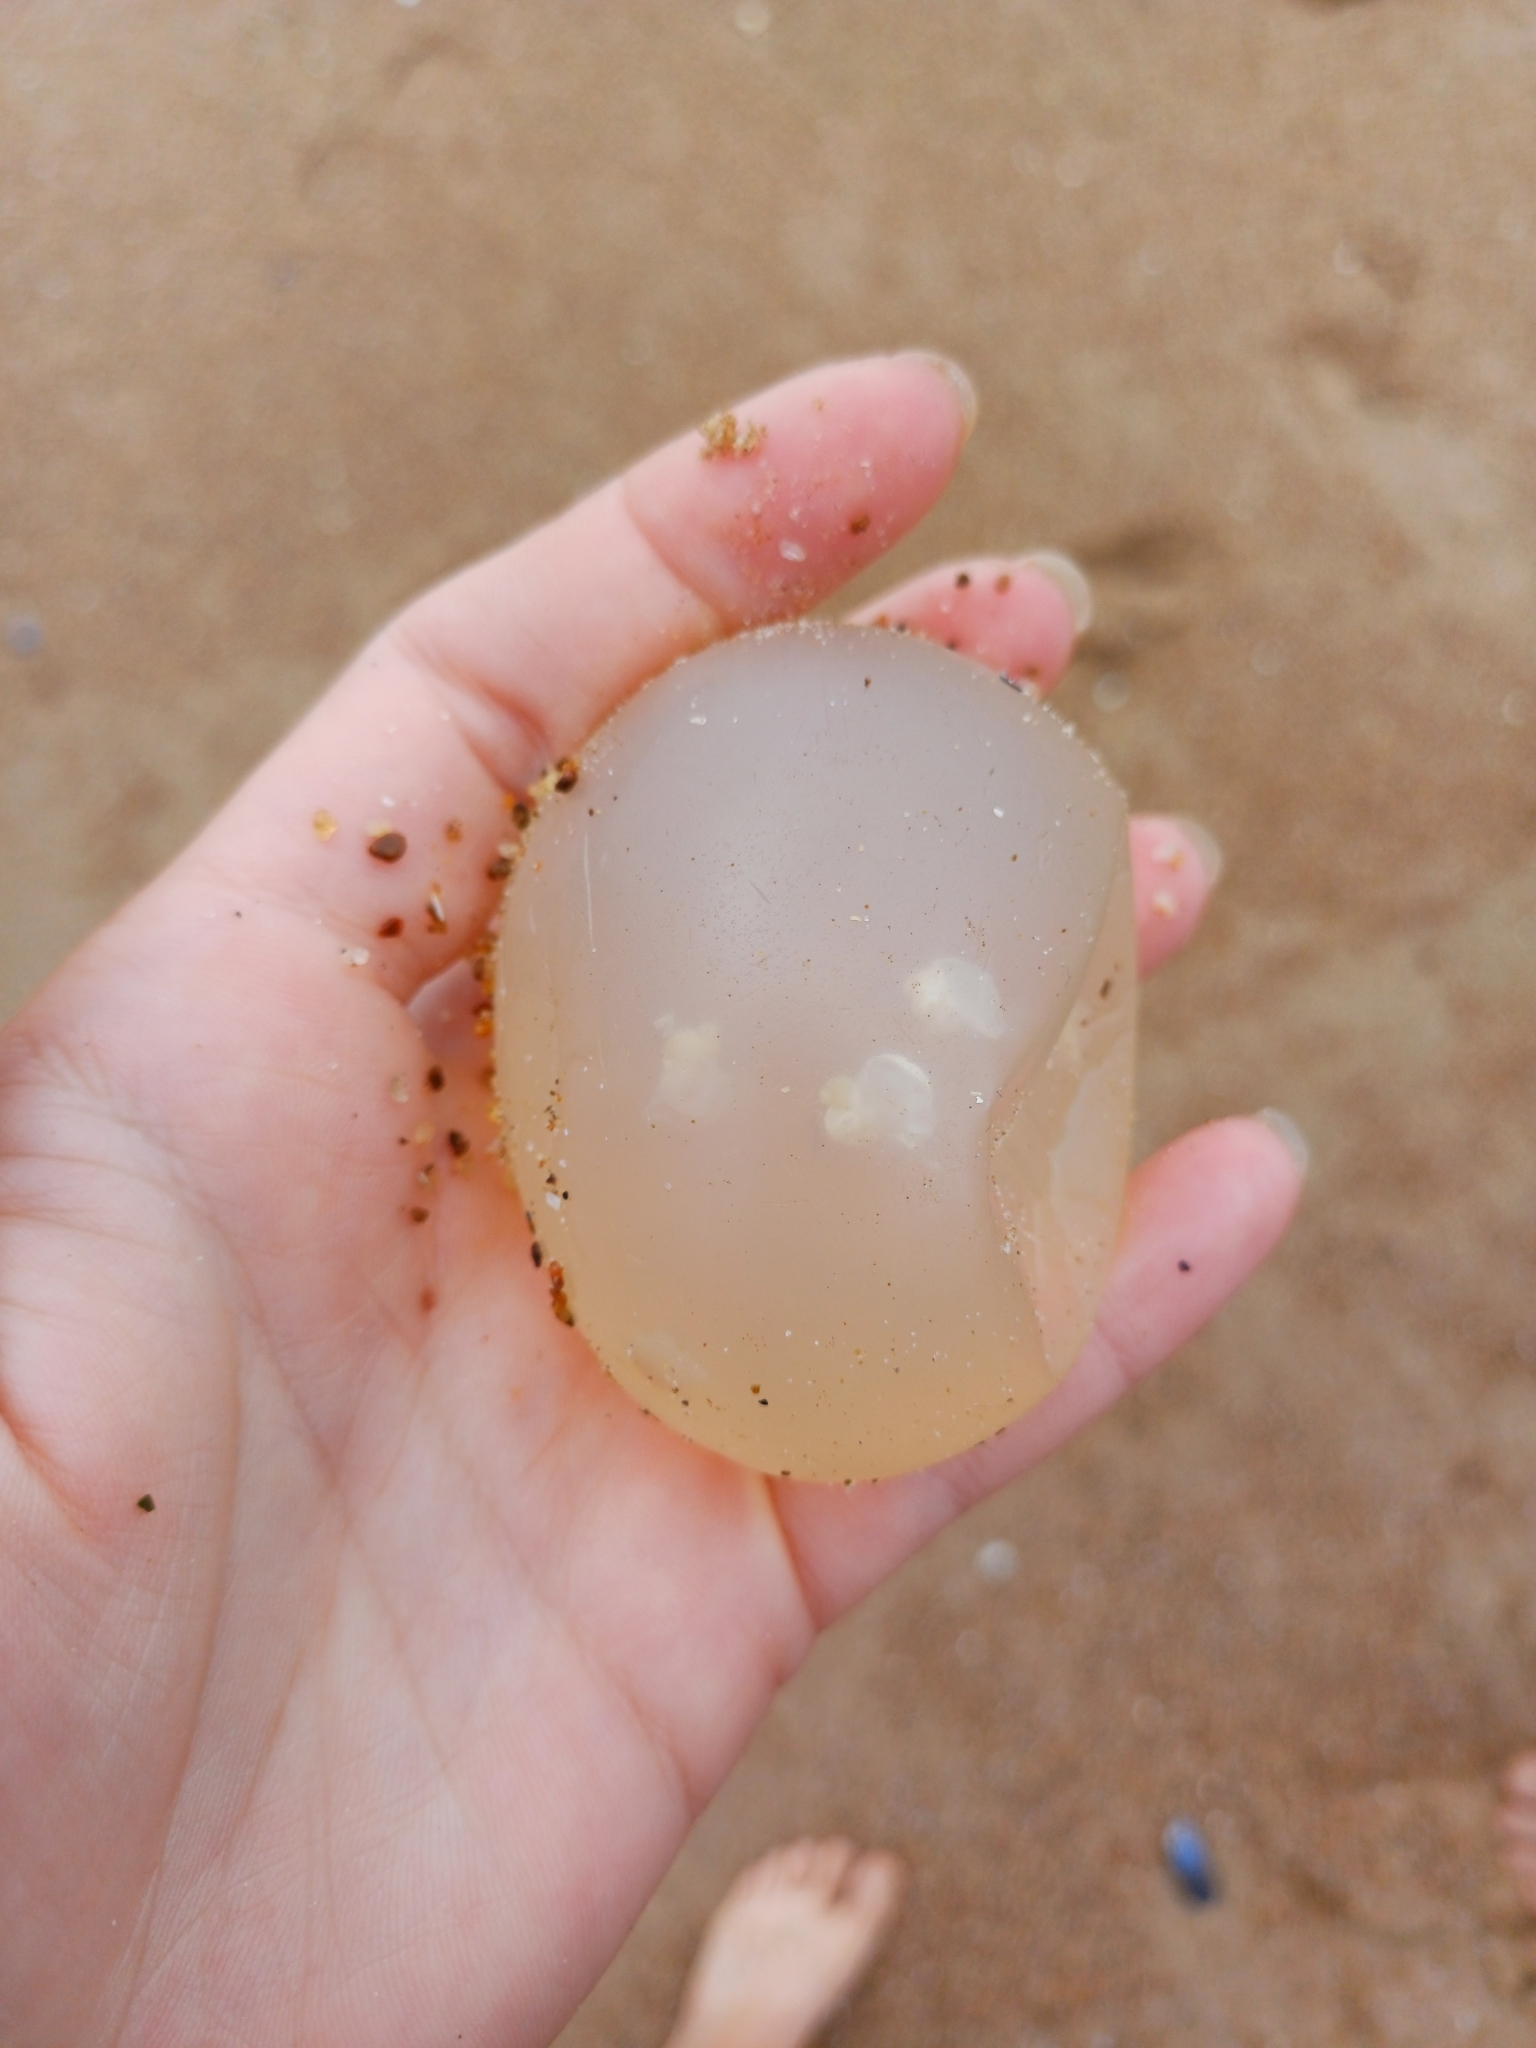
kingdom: Animalia
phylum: Mollusca
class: Gastropoda
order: Neogastropoda
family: Volutidae
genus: Pachycymbiola
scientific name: Pachycymbiola brasiliana
